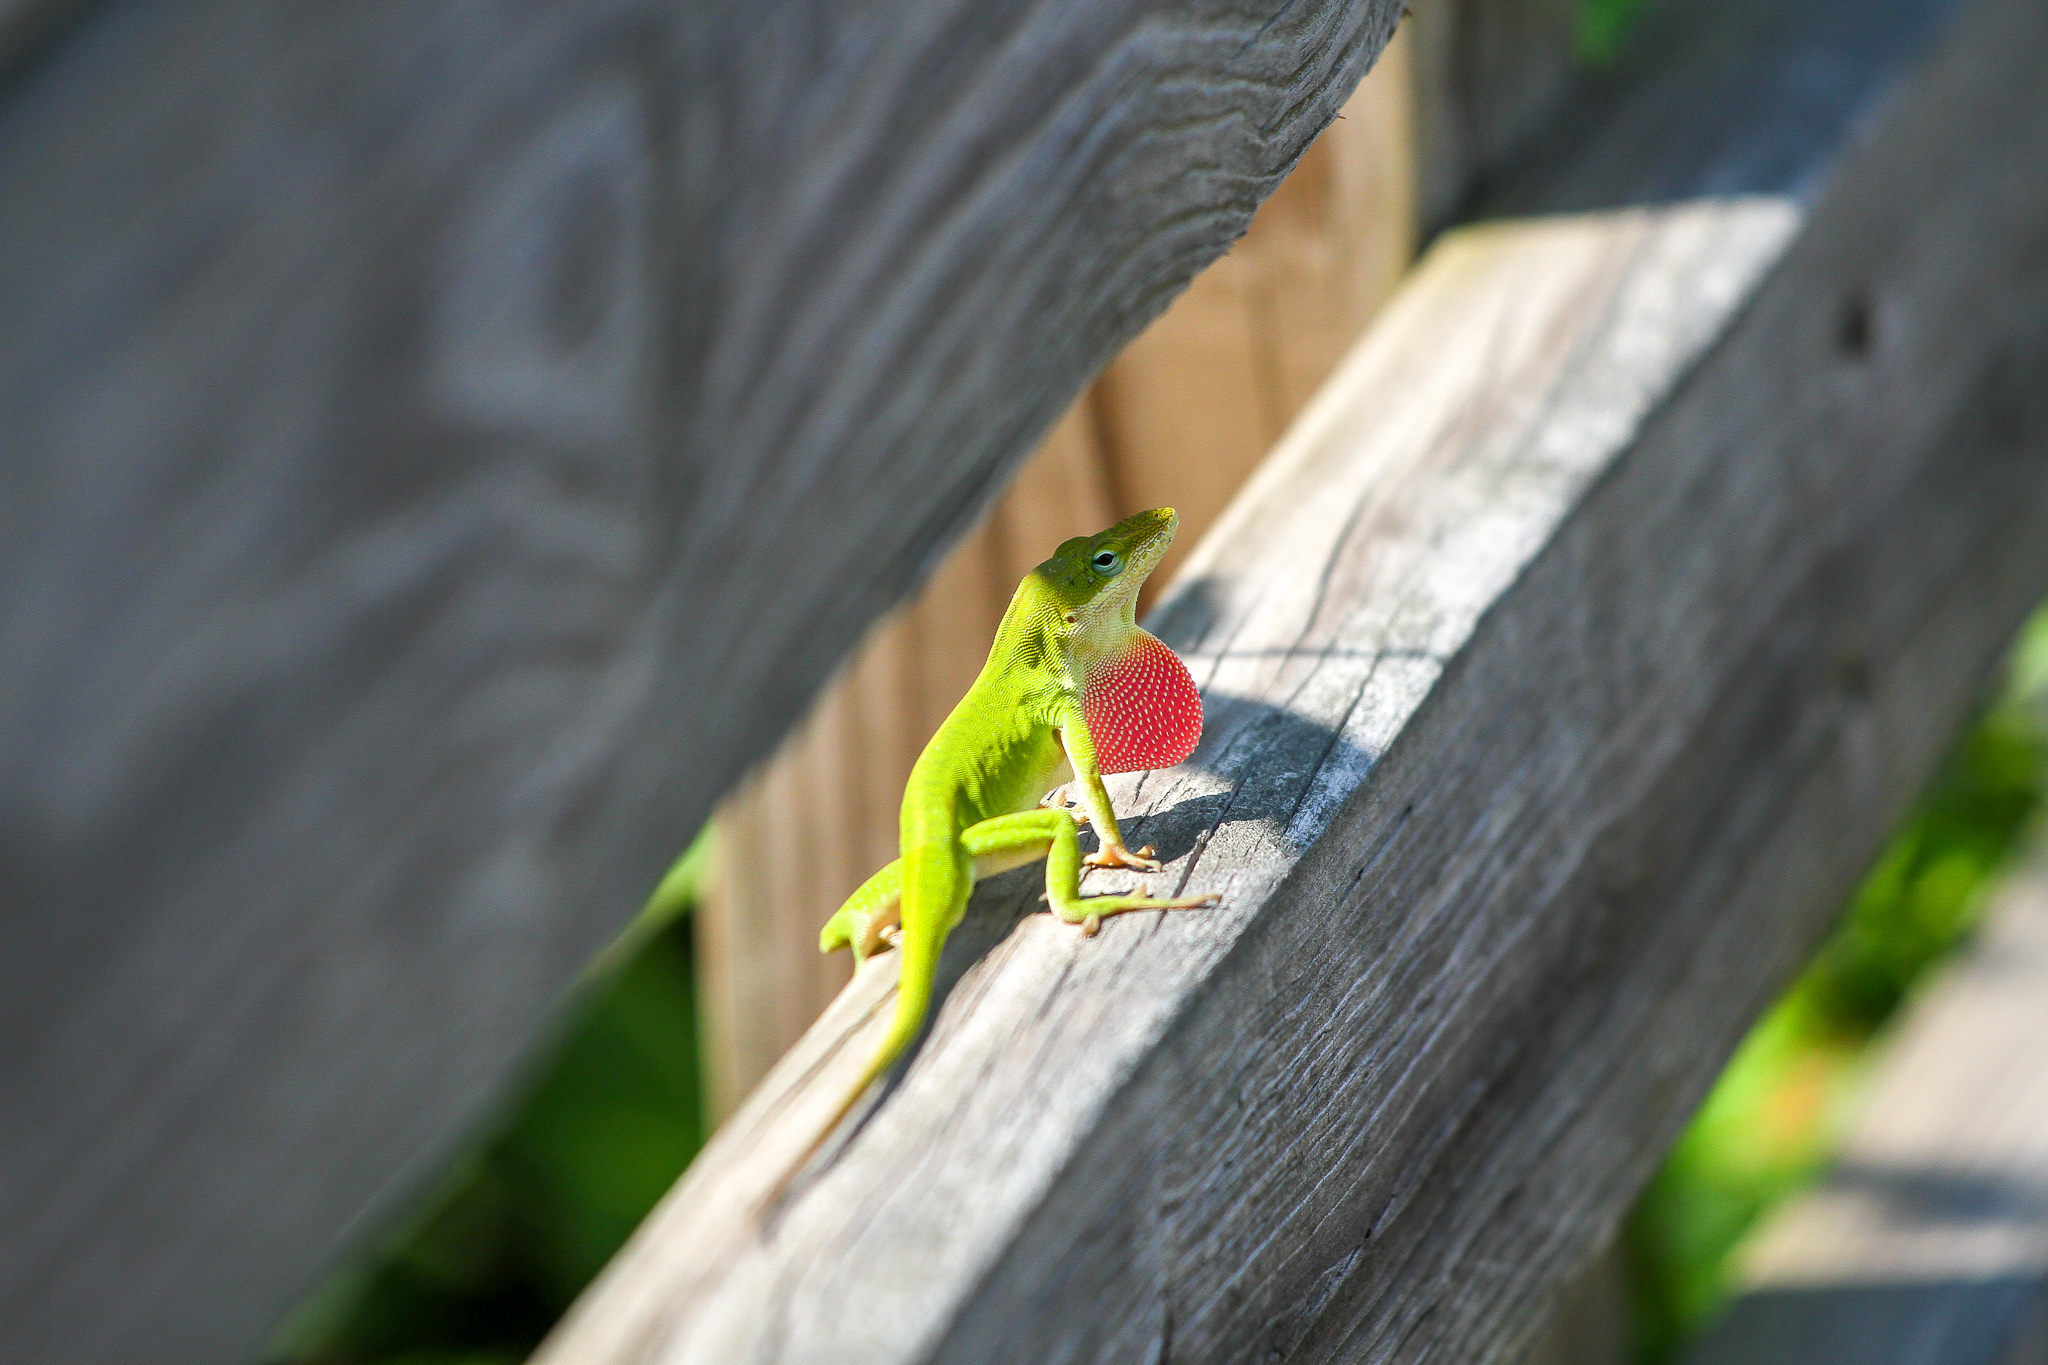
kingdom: Animalia
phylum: Chordata
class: Squamata
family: Dactyloidae
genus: Anolis
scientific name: Anolis carolinensis
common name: Green anole
